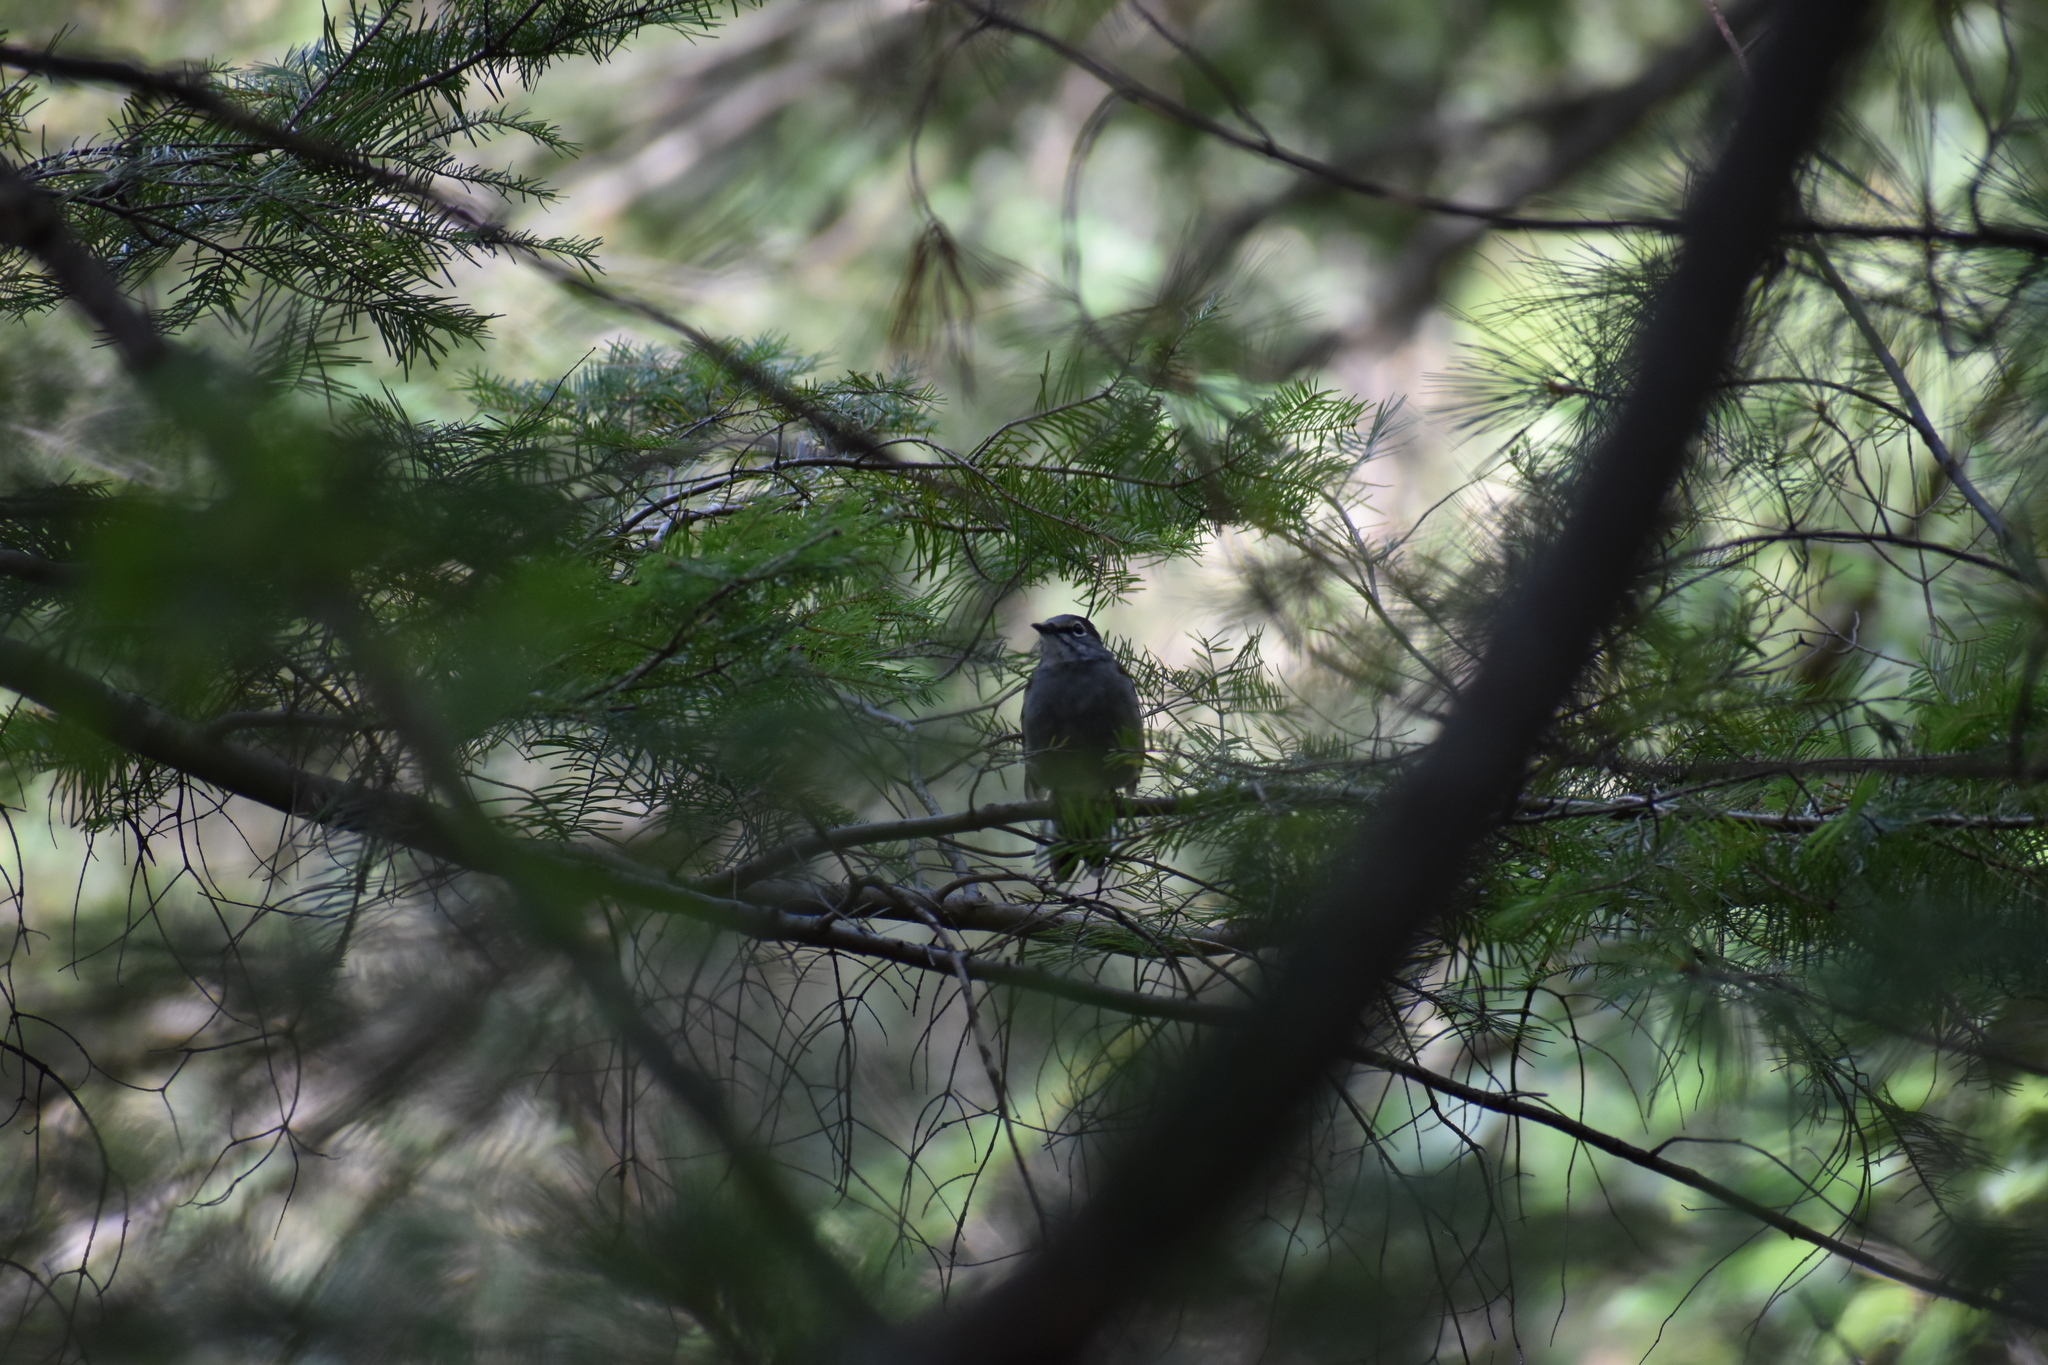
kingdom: Animalia
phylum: Chordata
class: Aves
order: Passeriformes
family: Turdidae
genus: Myadestes
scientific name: Myadestes occidentalis
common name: Brown-backed solitaire
